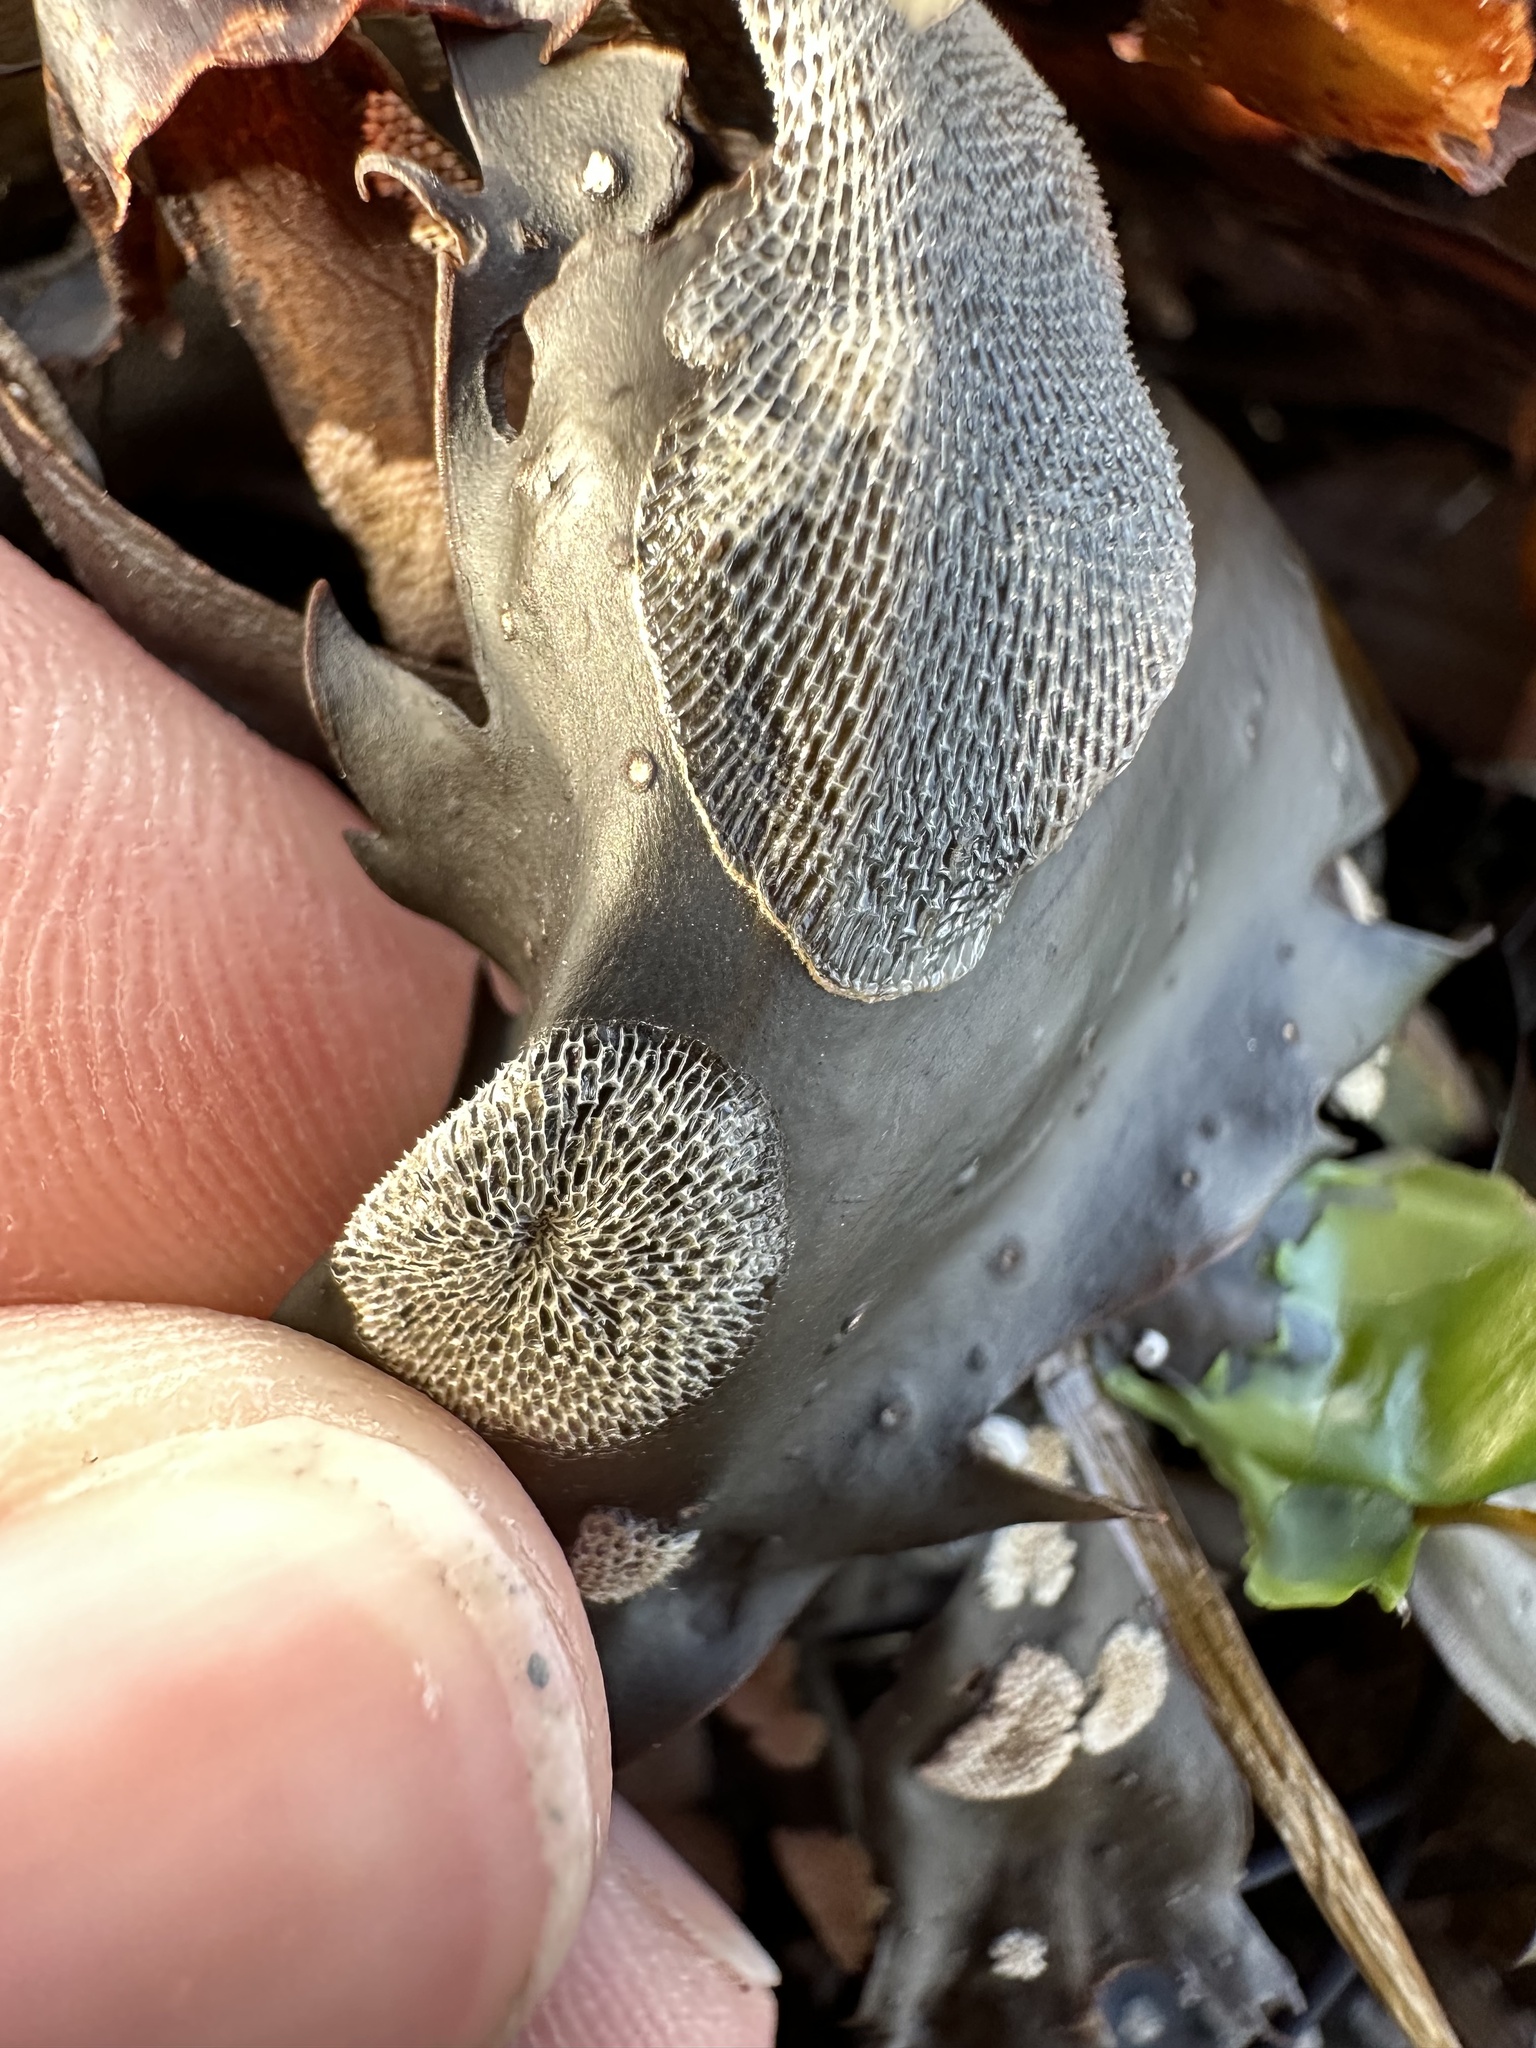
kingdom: Animalia
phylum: Bryozoa
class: Gymnolaemata
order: Cheilostomatida
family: Membraniporidae
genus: Membranipora
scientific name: Membranipora membranacea
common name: Sea mat
